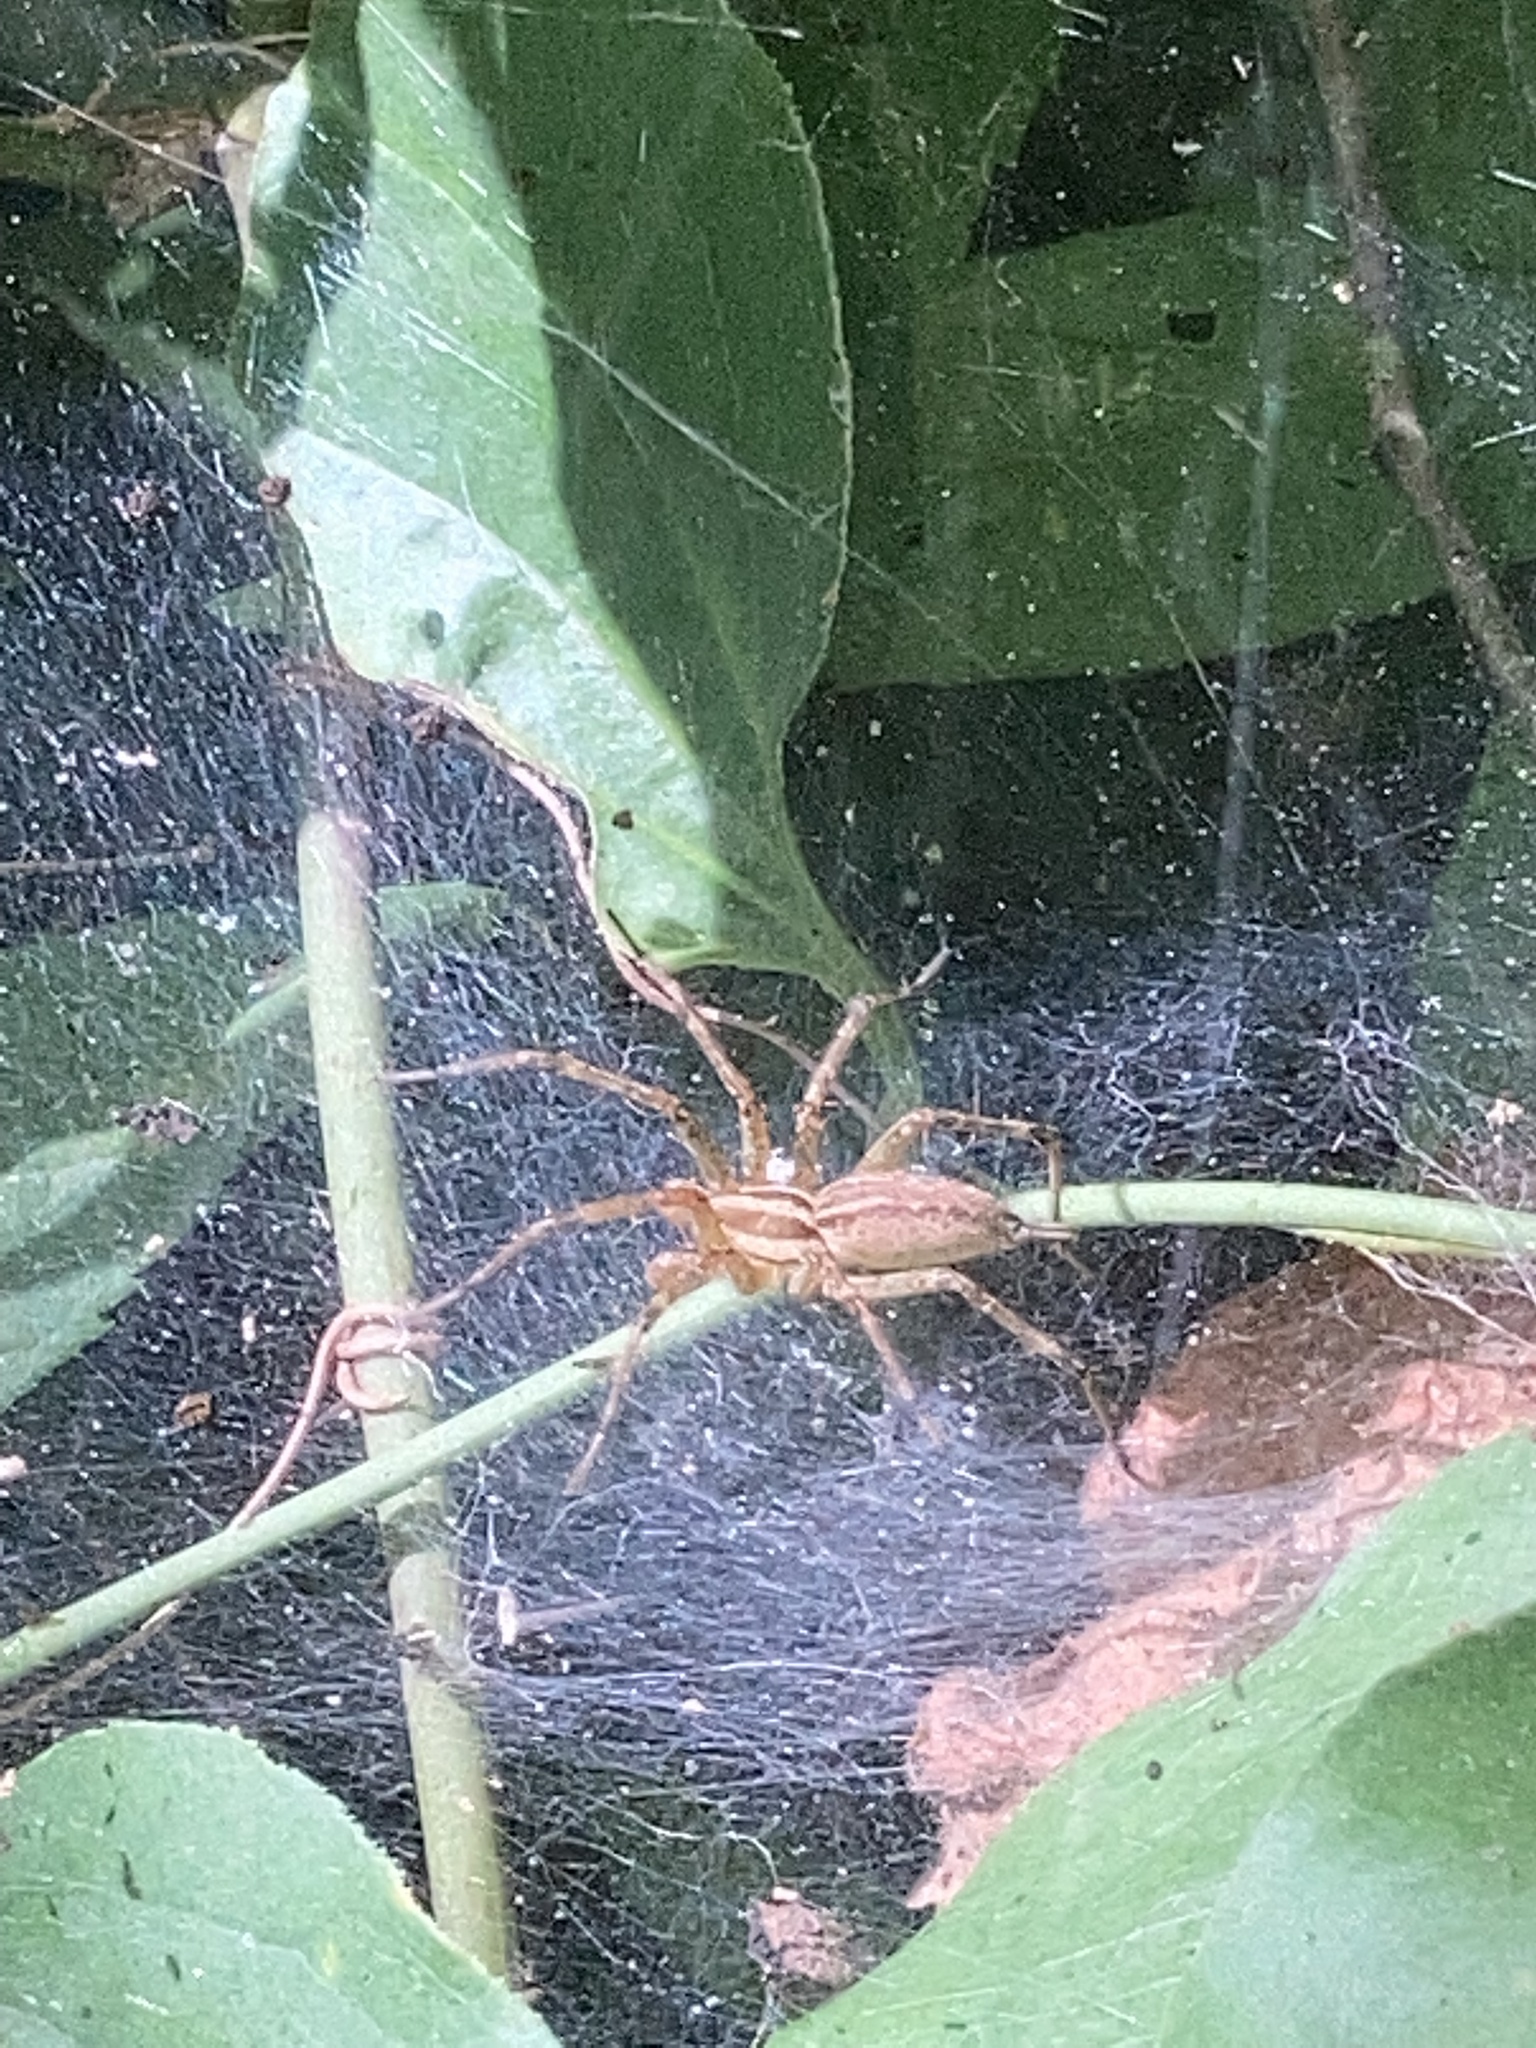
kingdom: Animalia
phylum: Arthropoda
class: Arachnida
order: Araneae
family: Agelenidae
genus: Agelenopsis
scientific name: Agelenopsis
